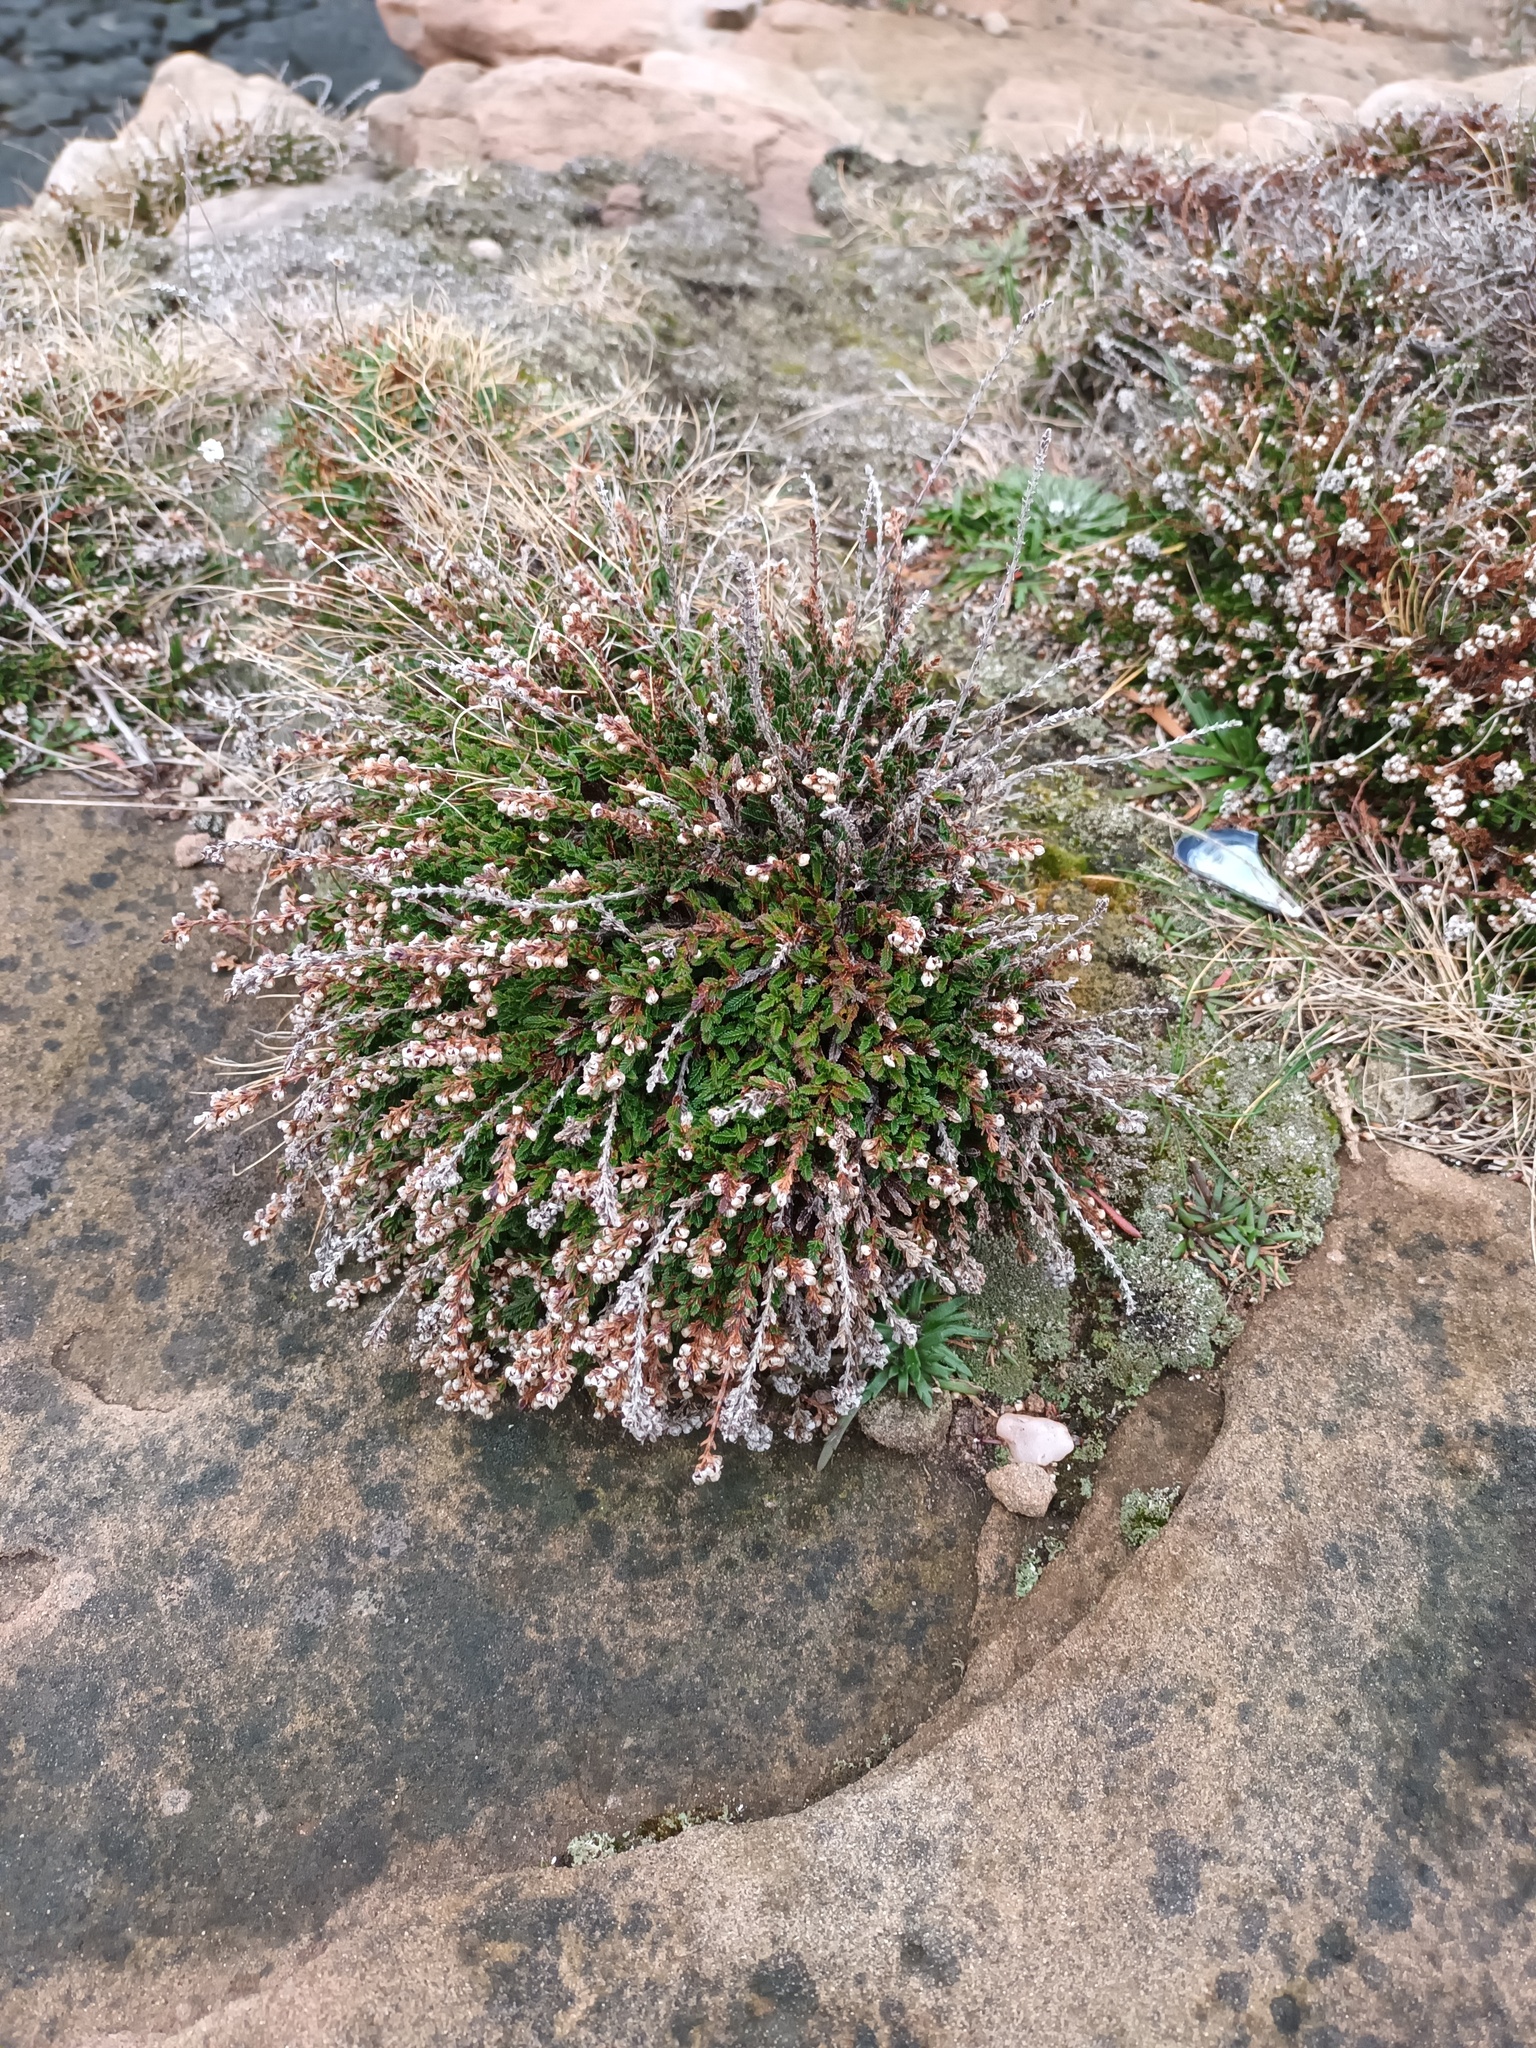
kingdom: Plantae
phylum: Tracheophyta
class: Magnoliopsida
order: Ericales
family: Ericaceae
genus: Calluna
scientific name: Calluna vulgaris
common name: Heather
